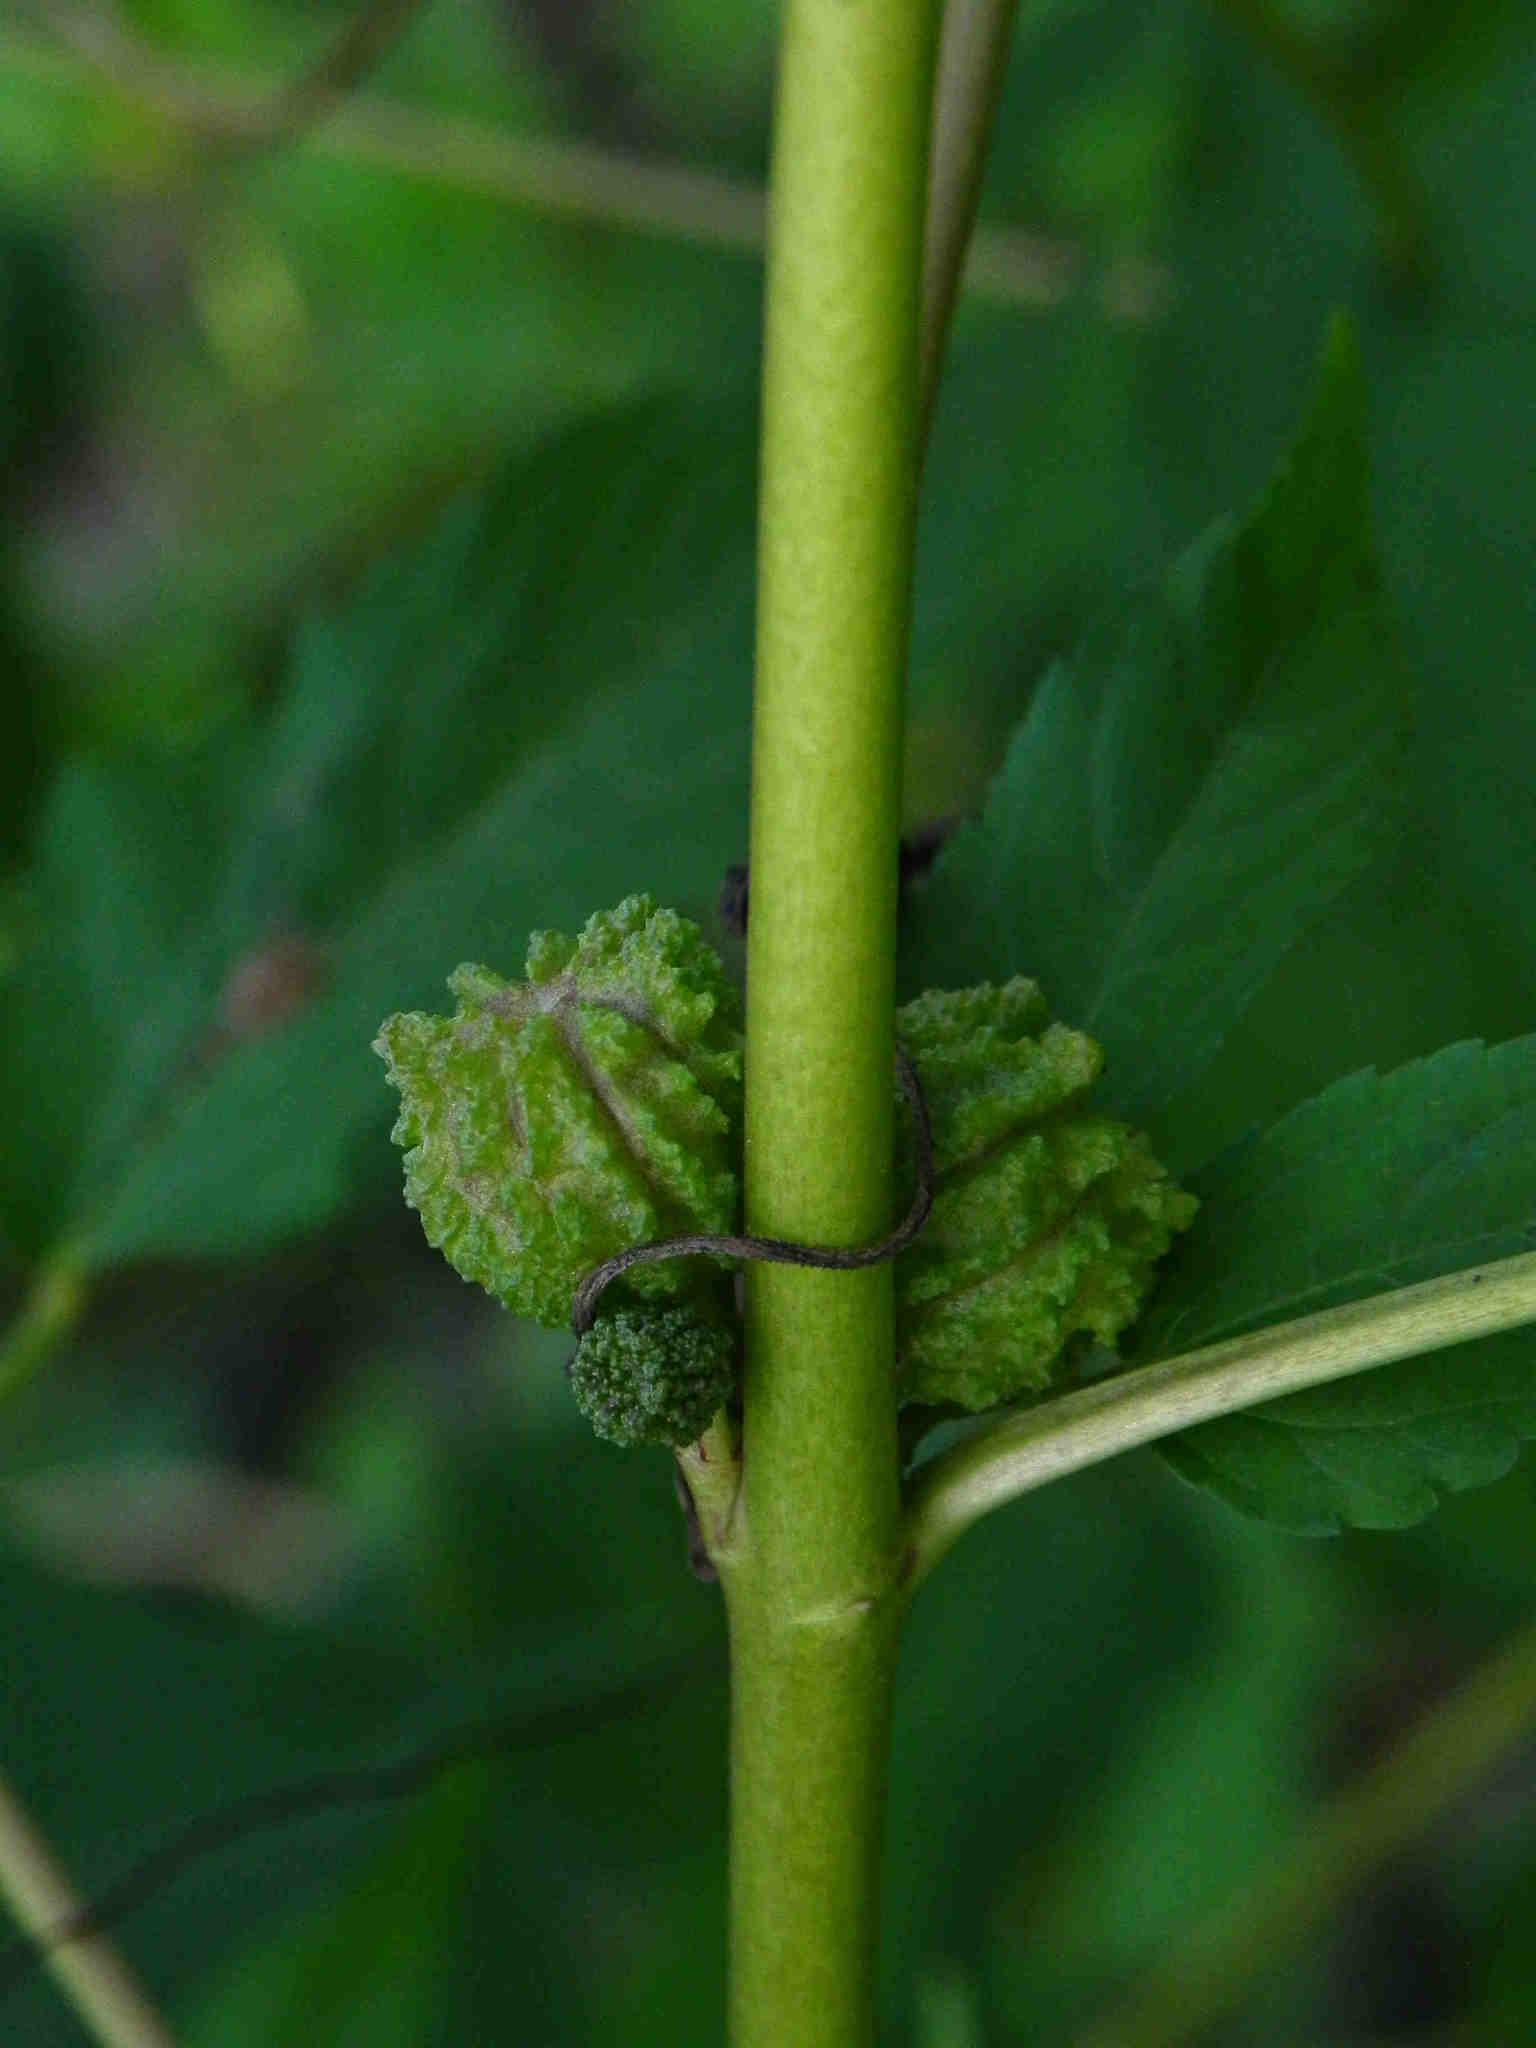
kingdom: Plantae
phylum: Tracheophyta
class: Magnoliopsida
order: Malvales
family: Malvaceae
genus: Corchorus
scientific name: Corchorus capsularis
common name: Jute
